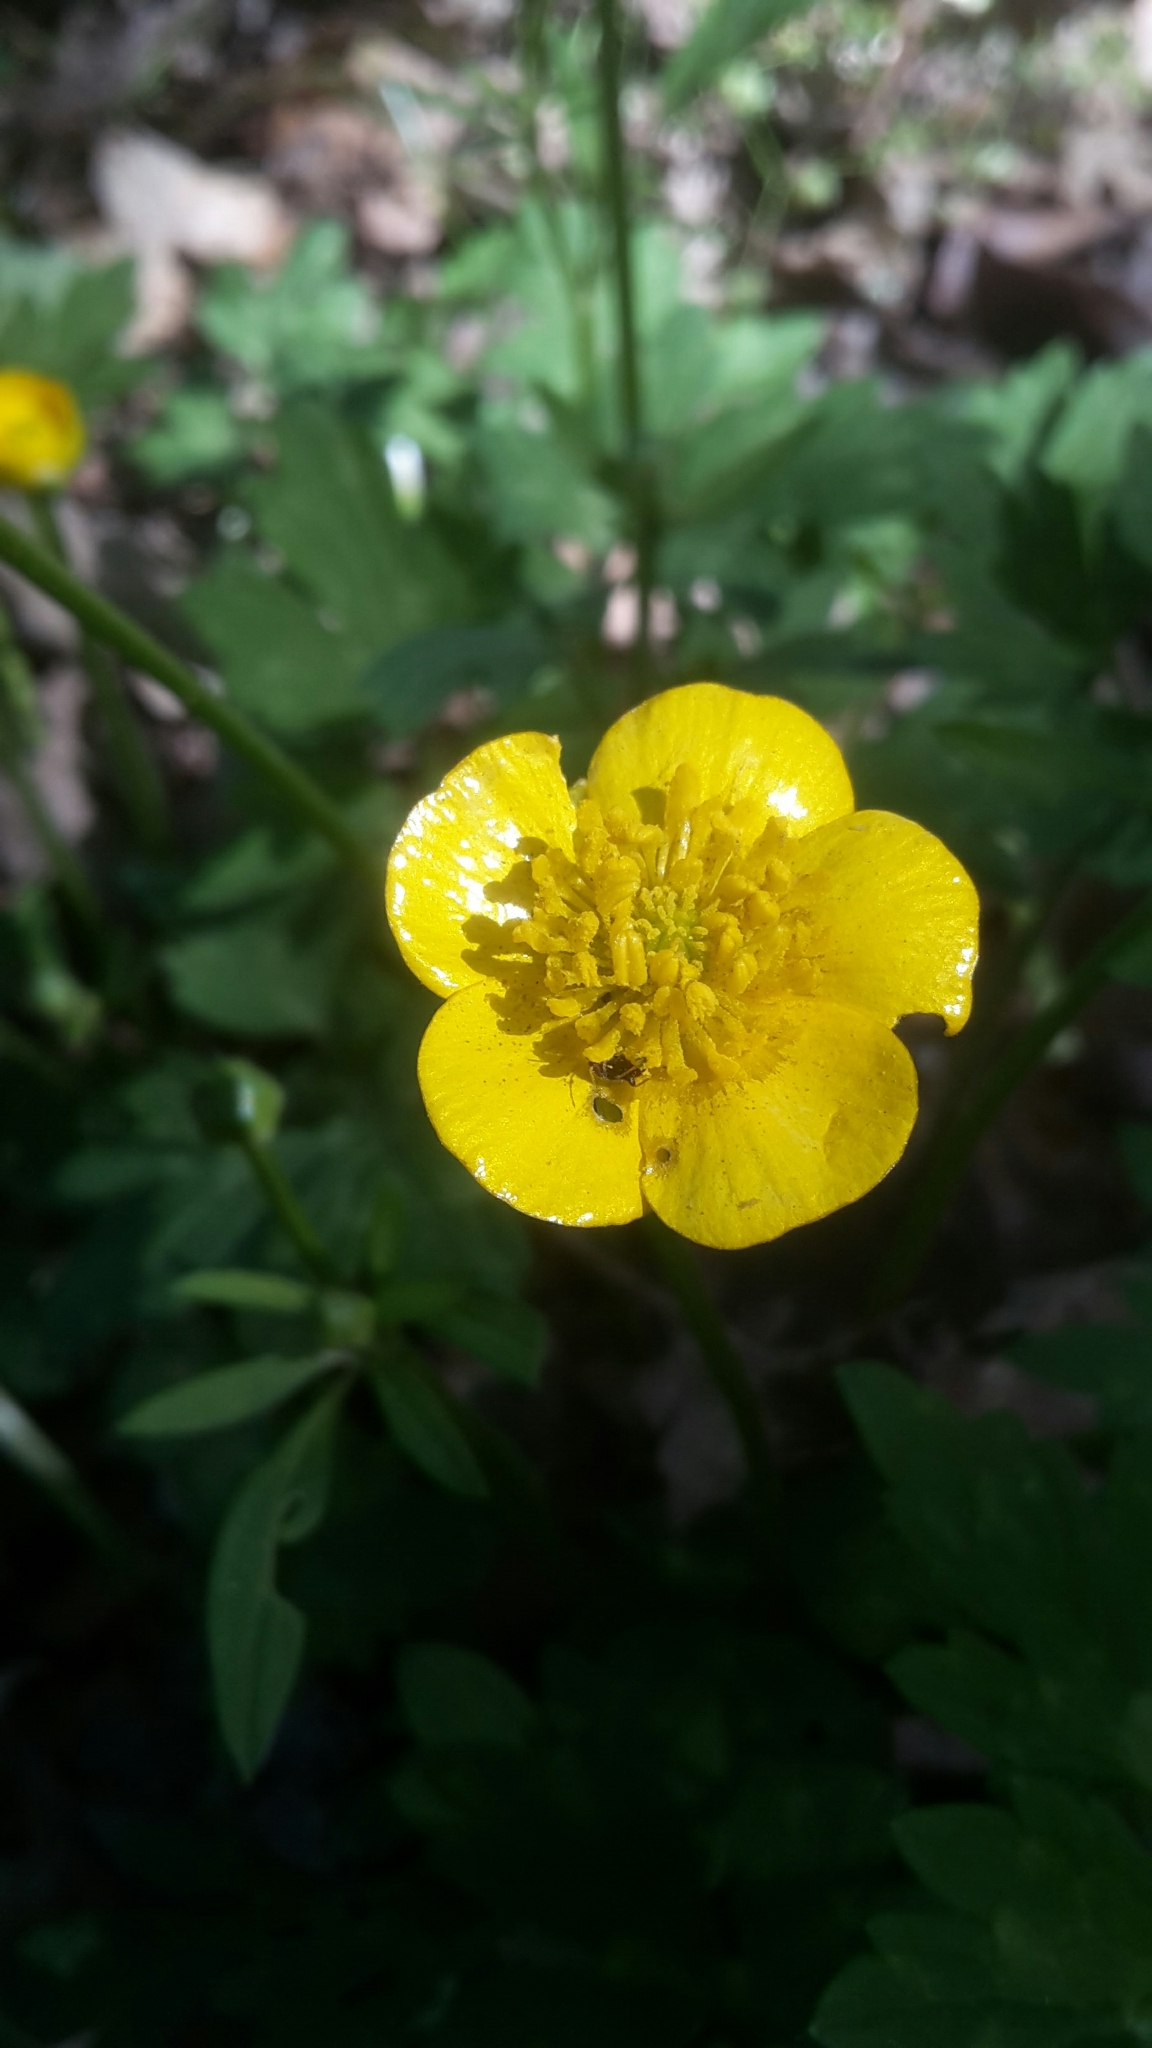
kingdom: Plantae
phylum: Tracheophyta
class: Magnoliopsida
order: Ranunculales
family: Ranunculaceae
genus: Ranunculus
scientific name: Ranunculus repens
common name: Creeping buttercup
